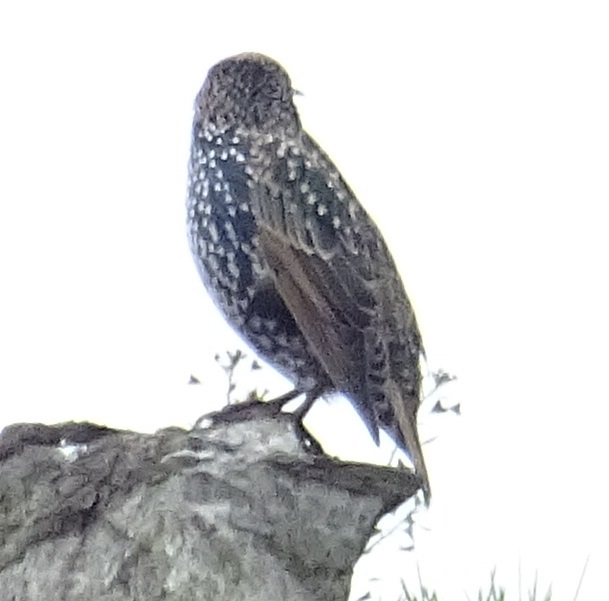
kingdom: Animalia
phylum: Chordata
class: Aves
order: Passeriformes
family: Sturnidae
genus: Sturnus
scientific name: Sturnus vulgaris
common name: Common starling
